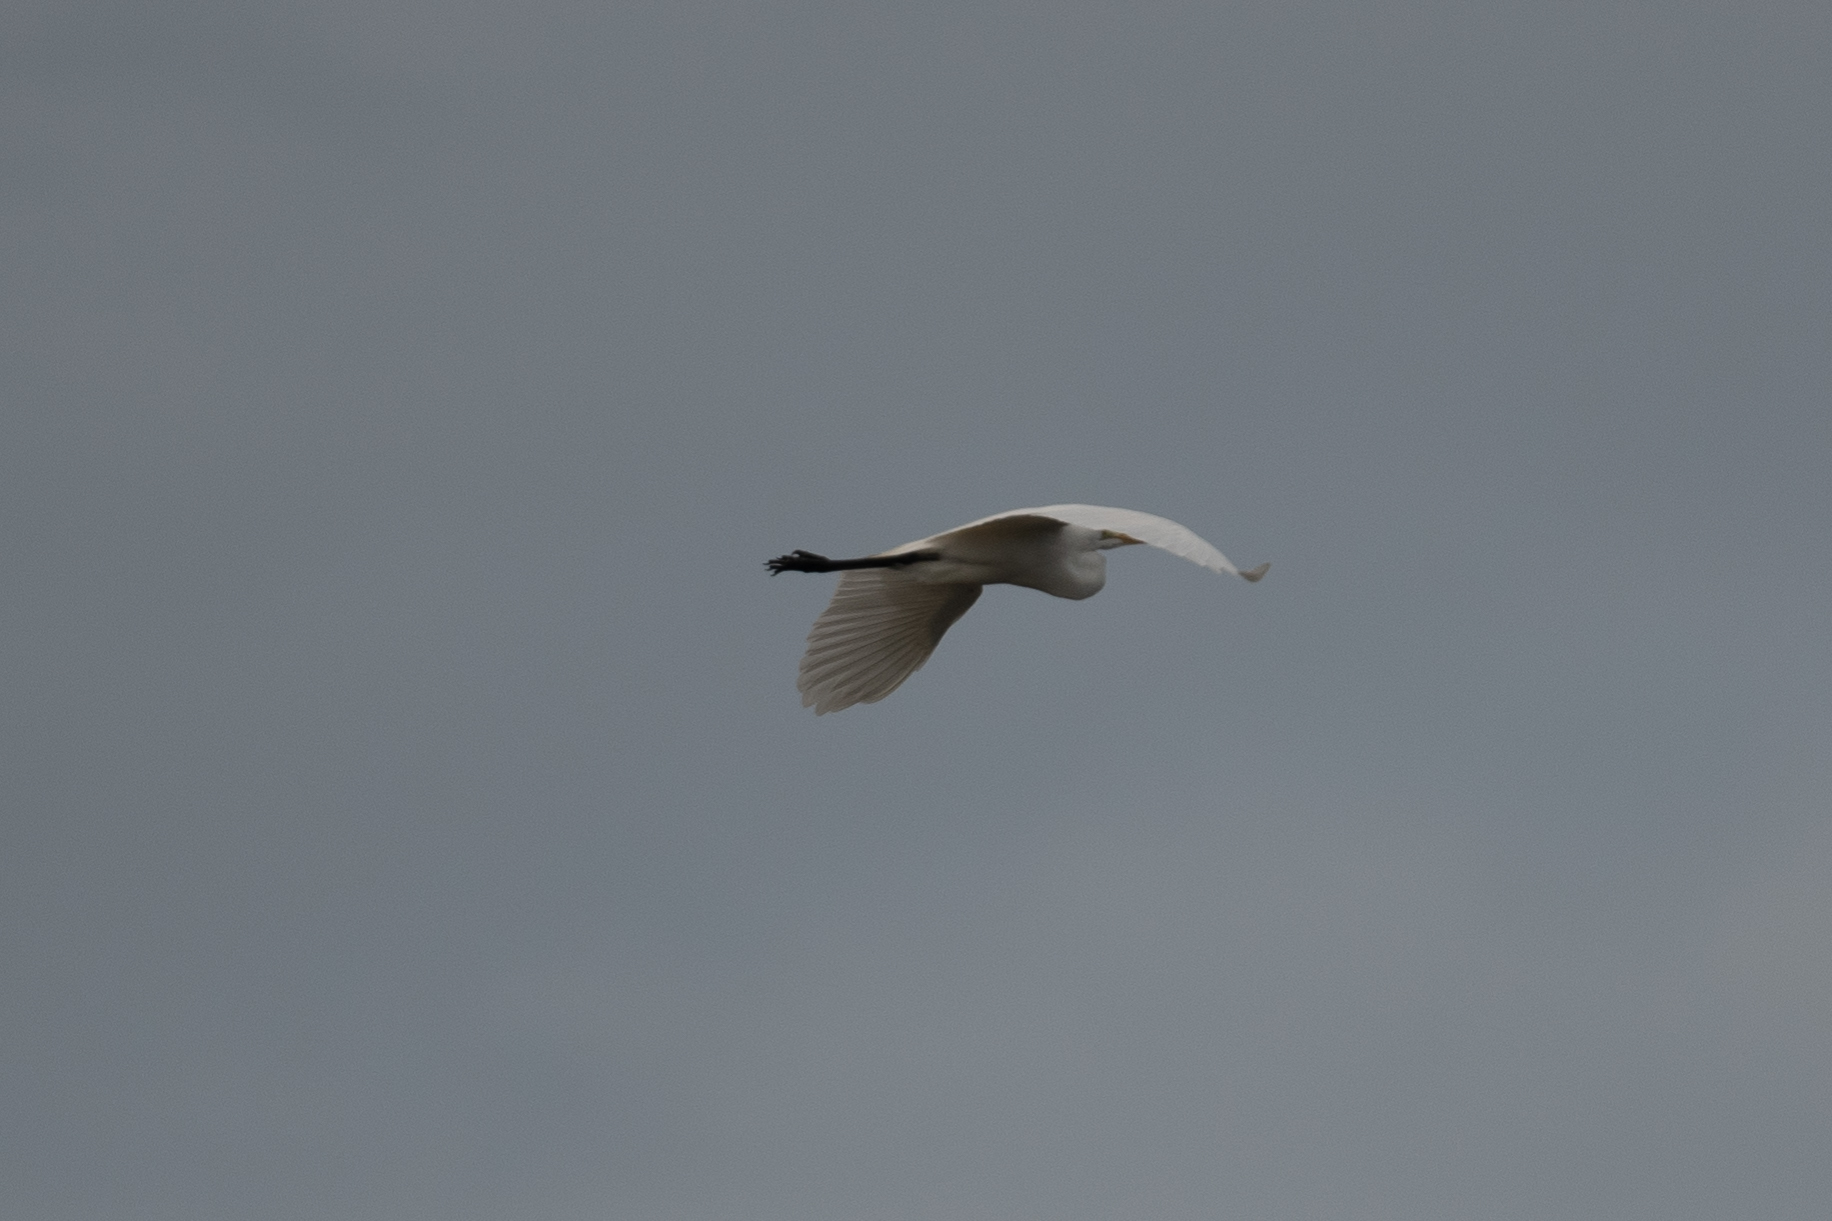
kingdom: Animalia
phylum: Chordata
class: Aves
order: Pelecaniformes
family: Ardeidae
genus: Ardea
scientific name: Ardea alba
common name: Great egret
